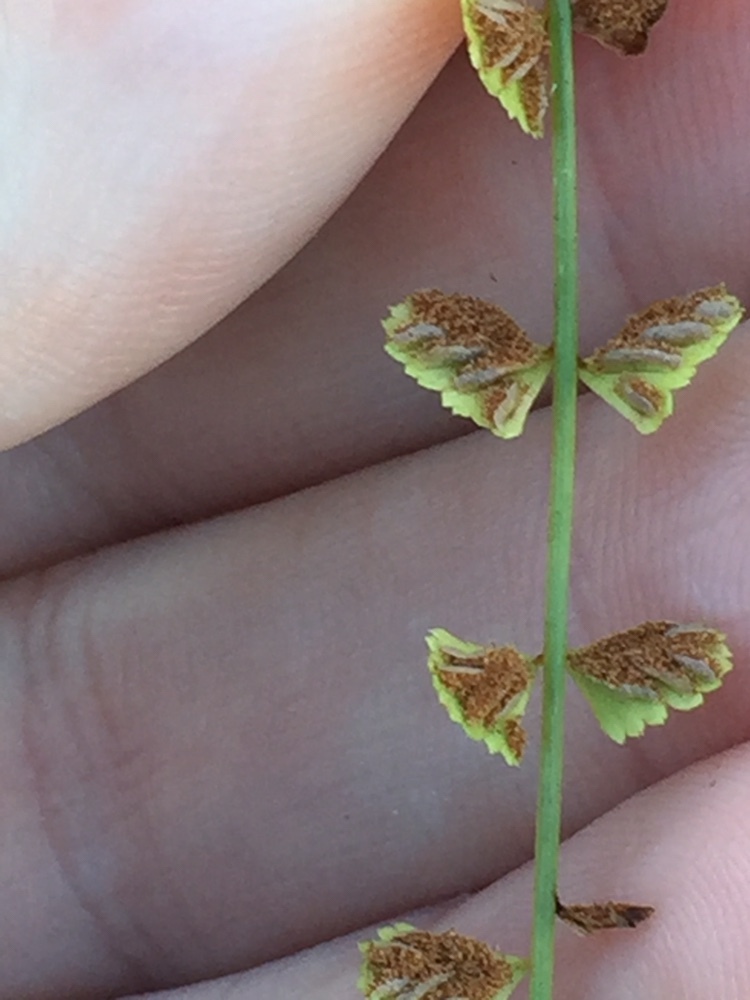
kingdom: Plantae
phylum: Tracheophyta
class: Polypodiopsida
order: Polypodiales
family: Aspleniaceae
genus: Asplenium
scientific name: Asplenium flabellifolium
